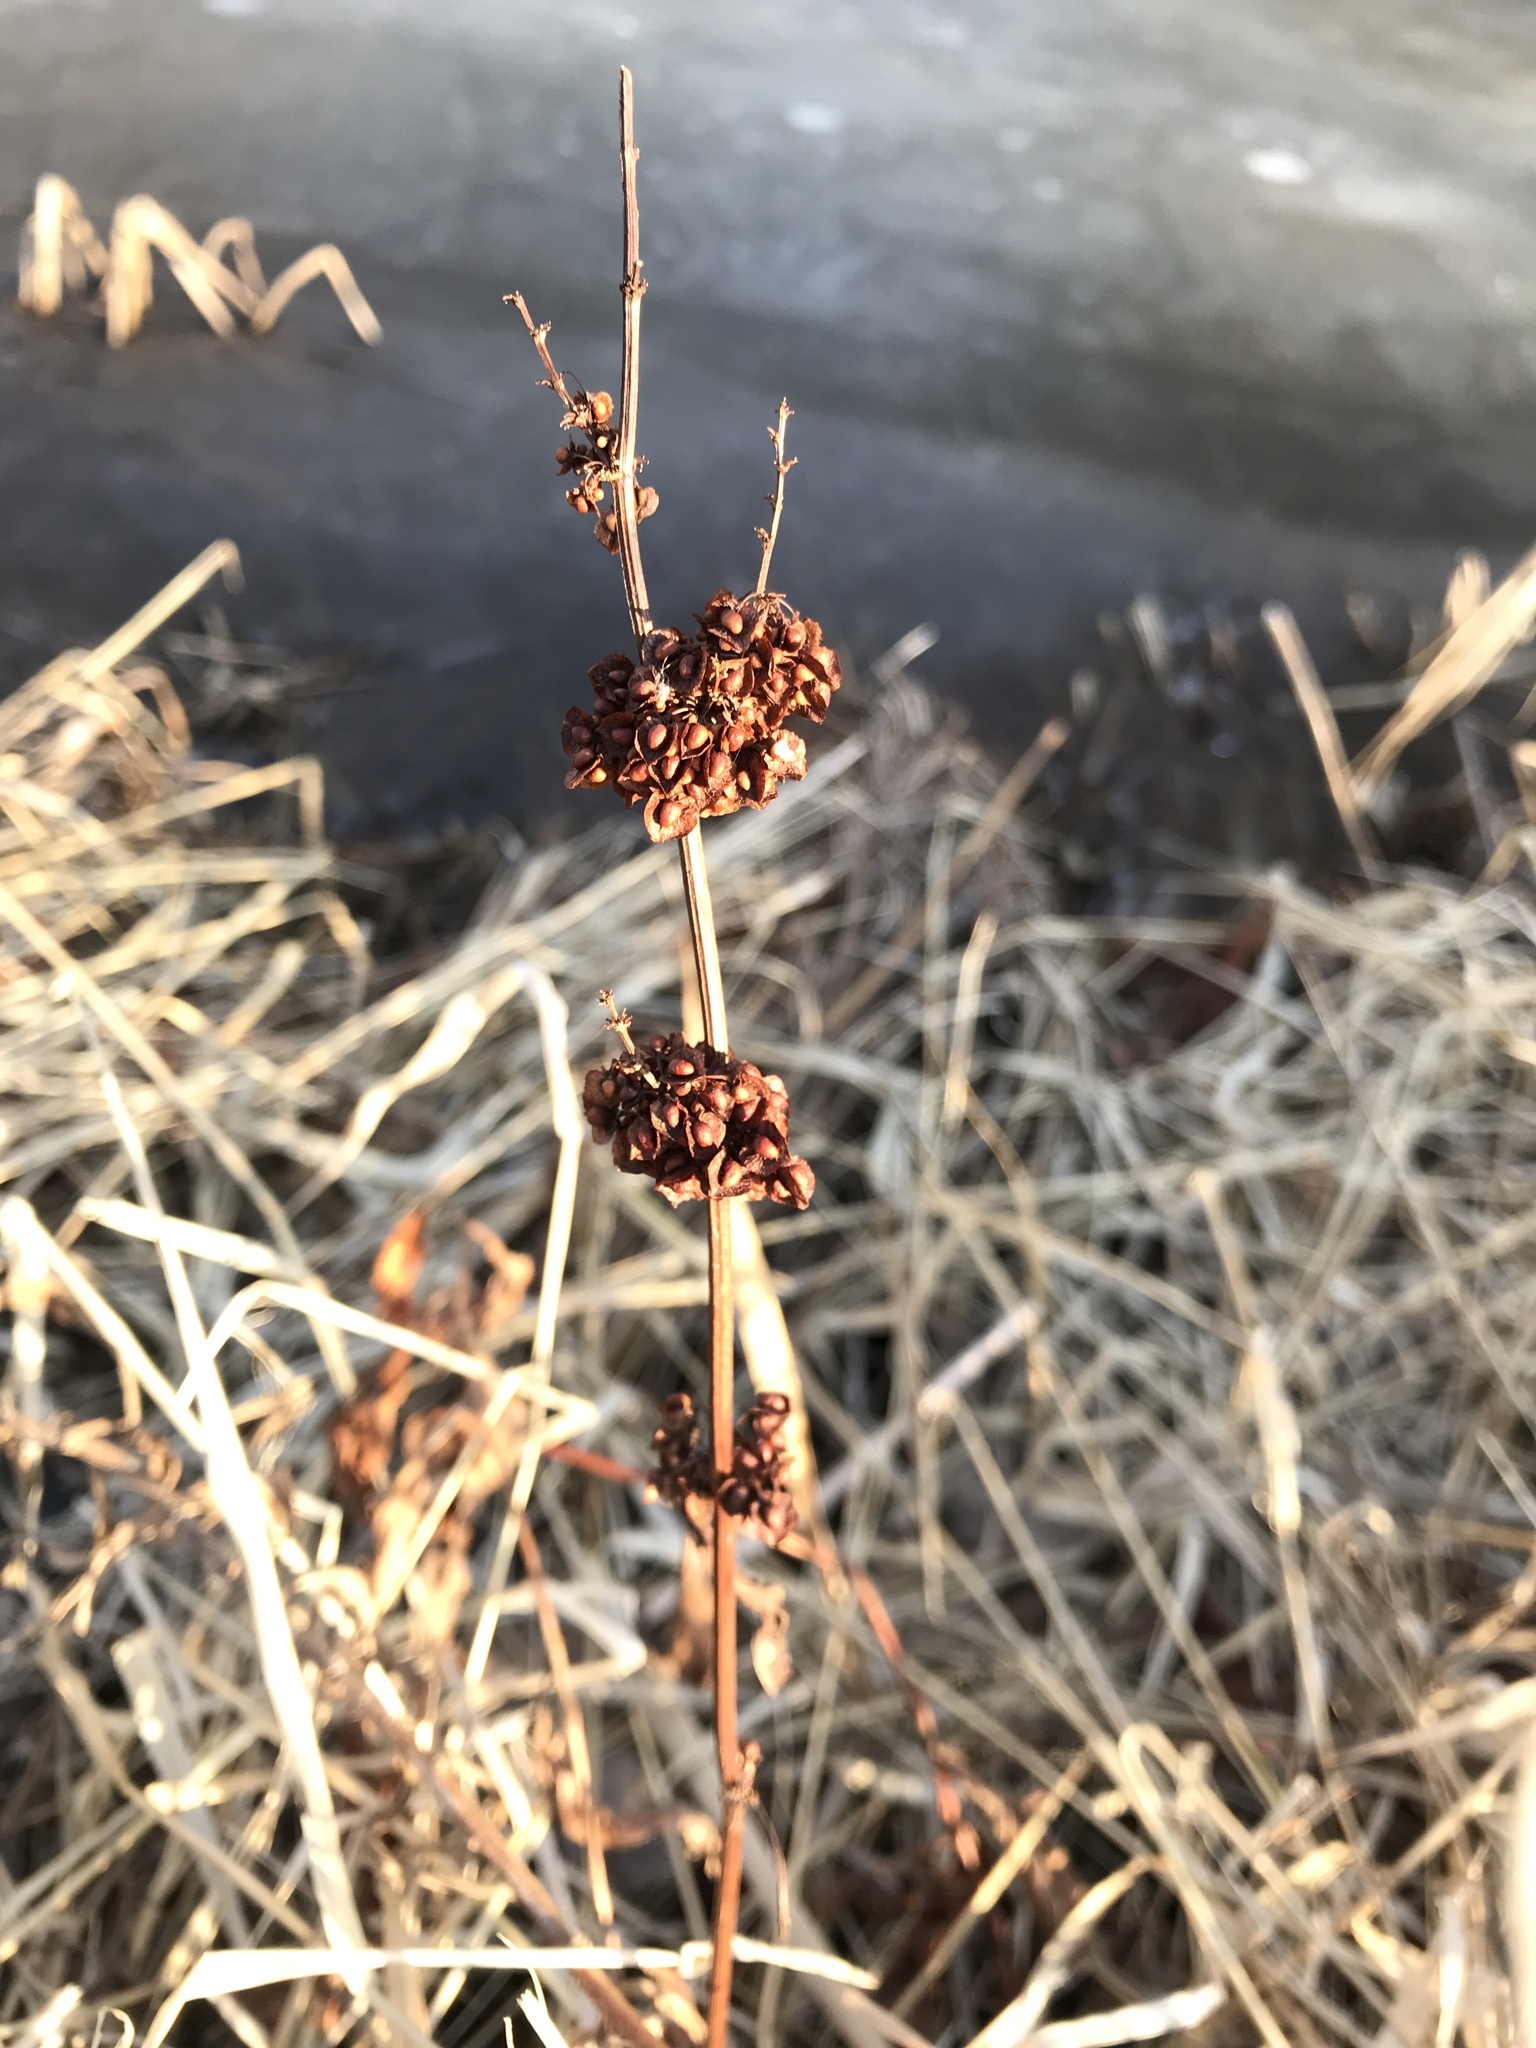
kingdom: Plantae
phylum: Tracheophyta
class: Magnoliopsida
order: Caryophyllales
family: Polygonaceae
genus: Rumex
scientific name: Rumex crispus
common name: Curled dock
